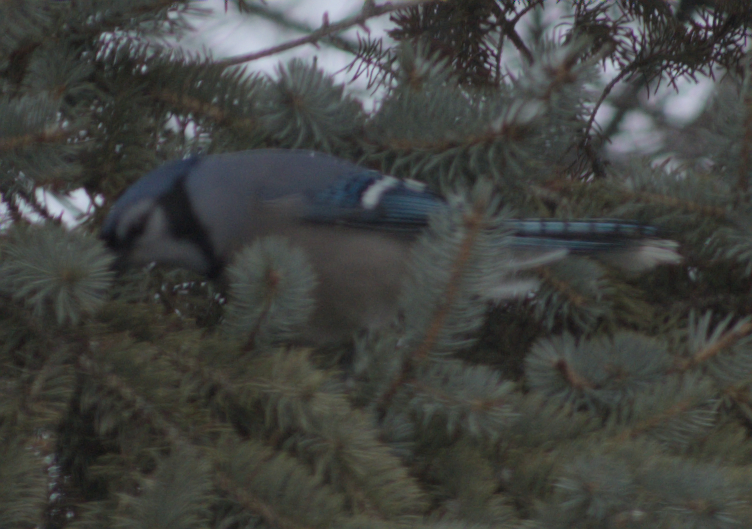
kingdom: Animalia
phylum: Chordata
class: Aves
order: Passeriformes
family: Corvidae
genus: Cyanocitta
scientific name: Cyanocitta cristata
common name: Blue jay
